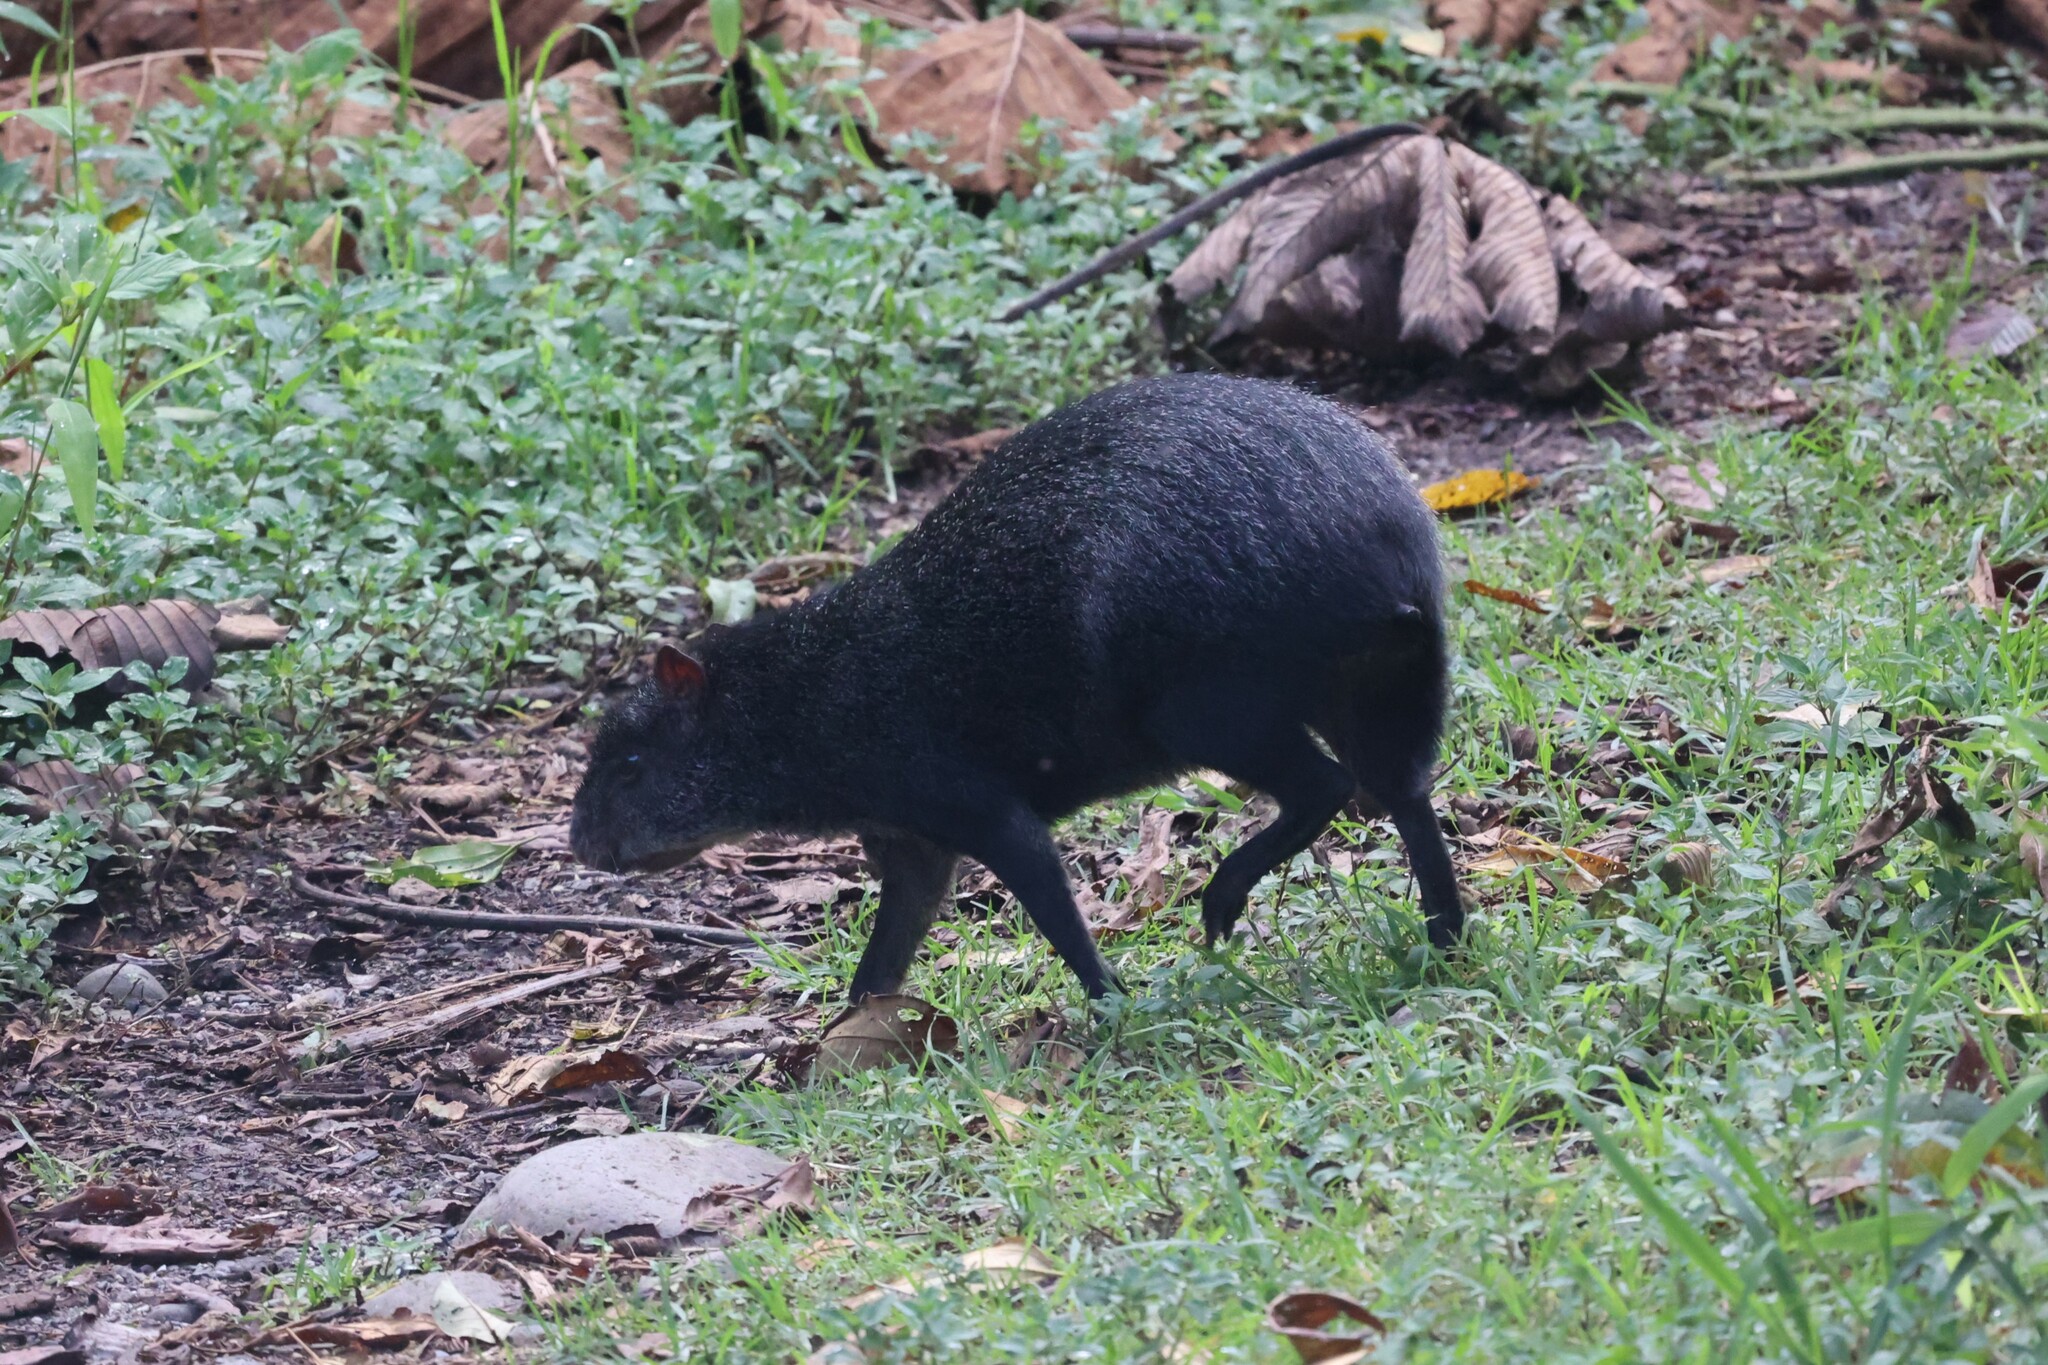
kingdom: Animalia
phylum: Chordata
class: Mammalia
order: Rodentia
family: Dasyproctidae
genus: Dasyprocta
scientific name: Dasyprocta fuliginosa
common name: Black agouti
